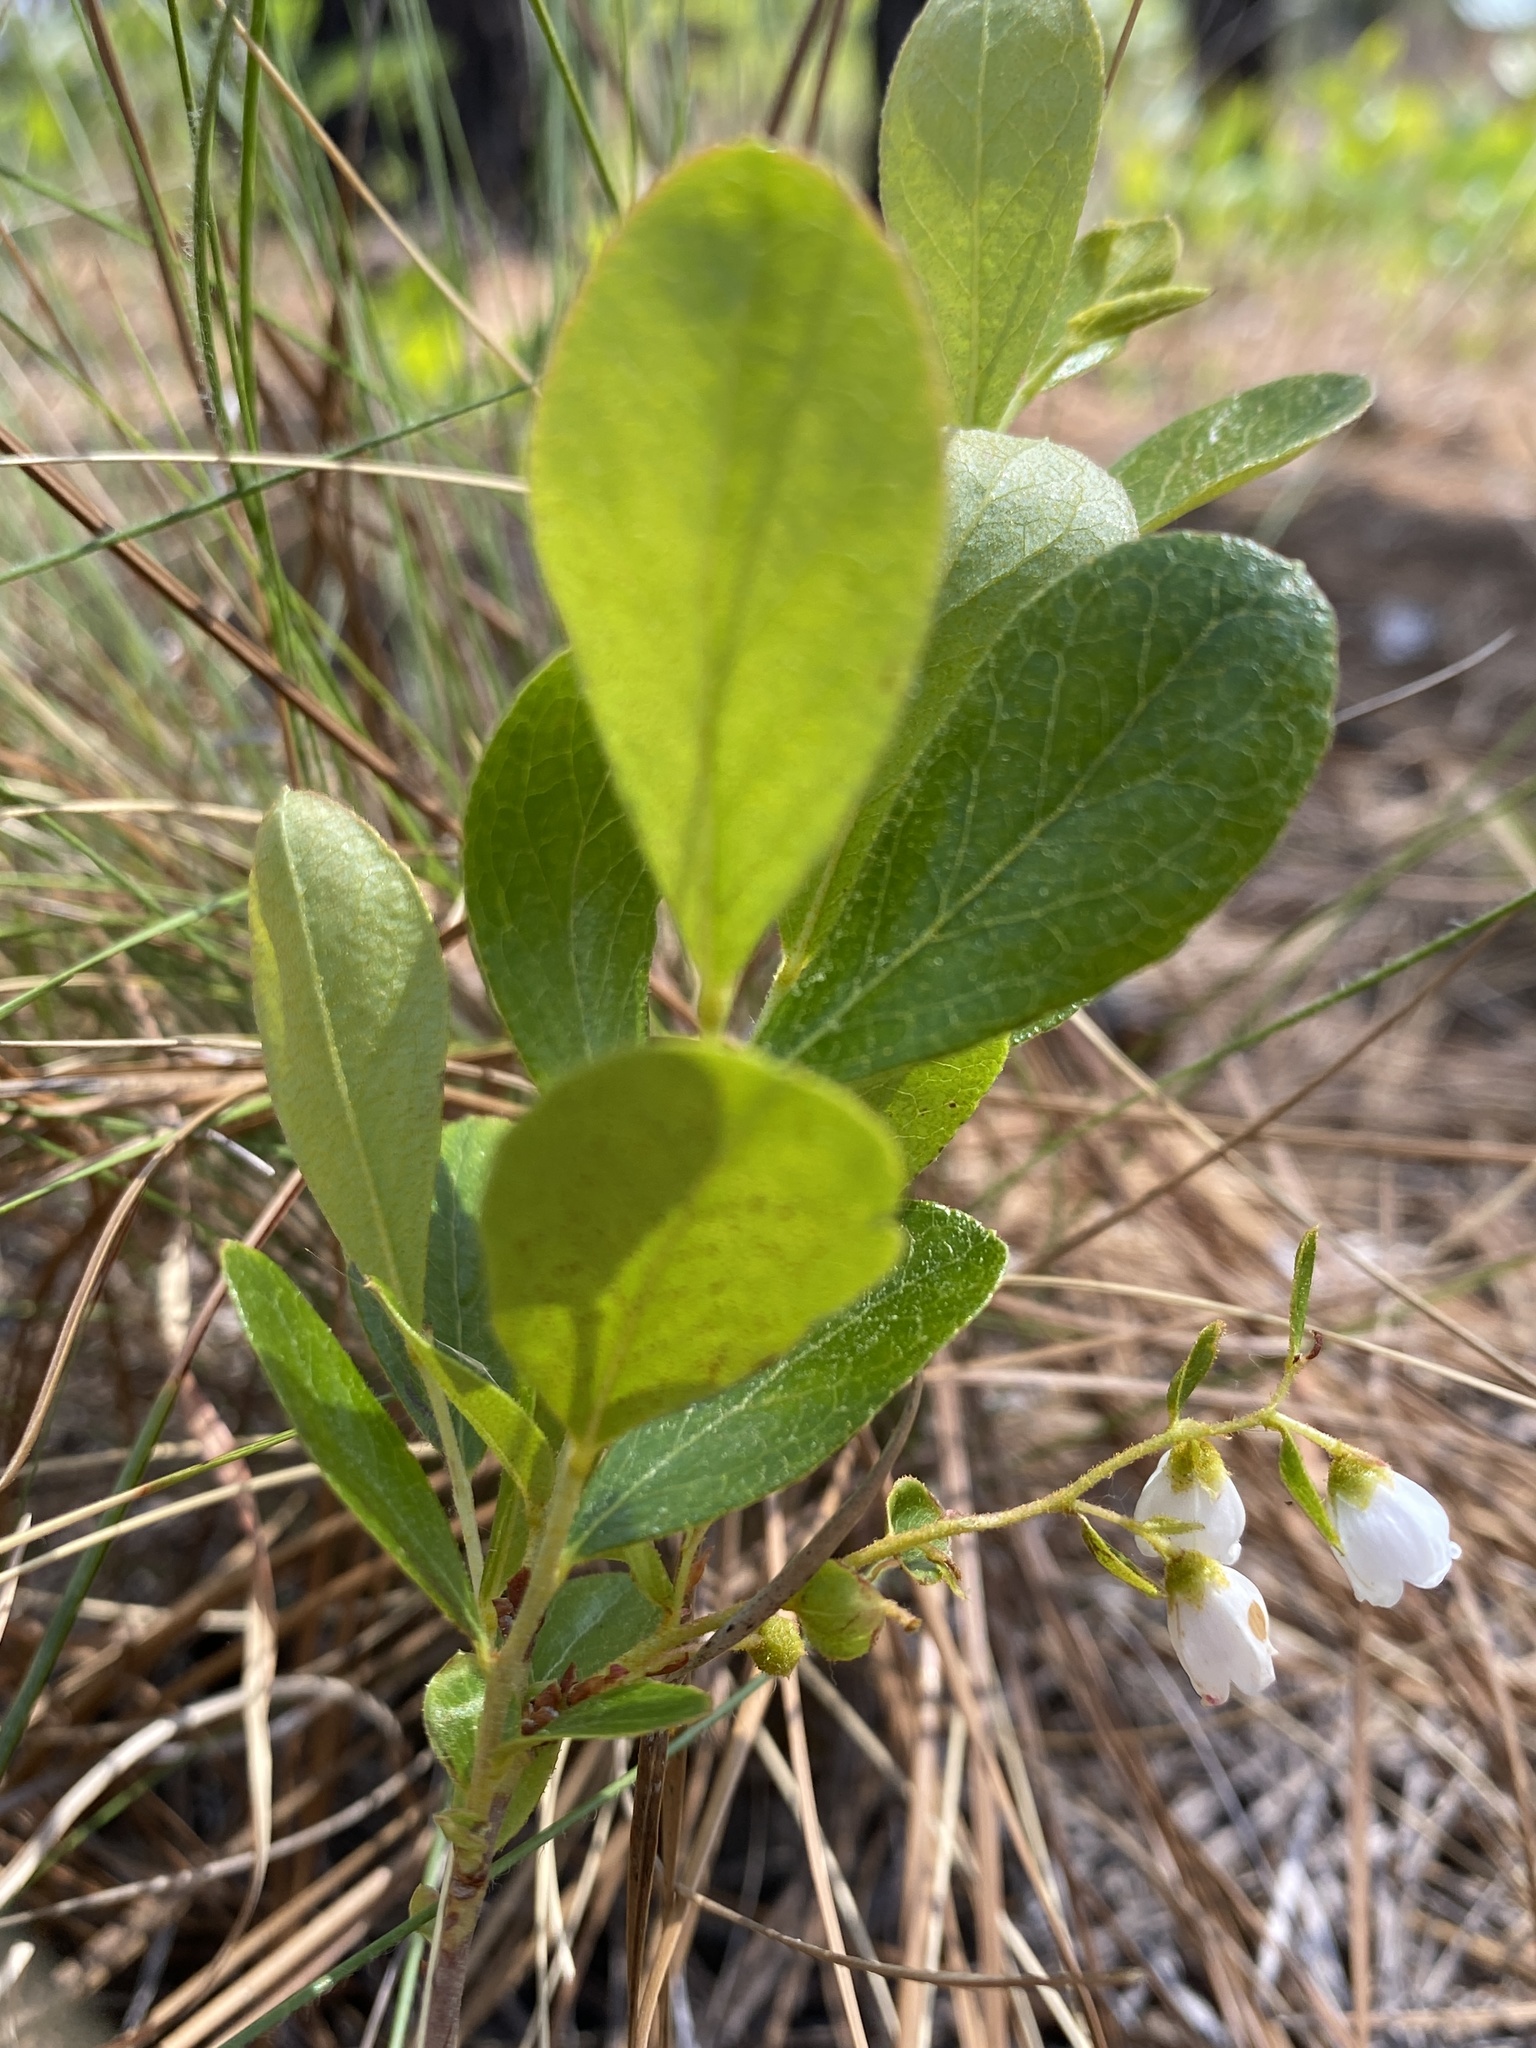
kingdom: Plantae
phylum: Tracheophyta
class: Magnoliopsida
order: Ericales
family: Ericaceae
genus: Gaylussacia
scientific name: Gaylussacia dumosa
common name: Dwarf huckleberry
